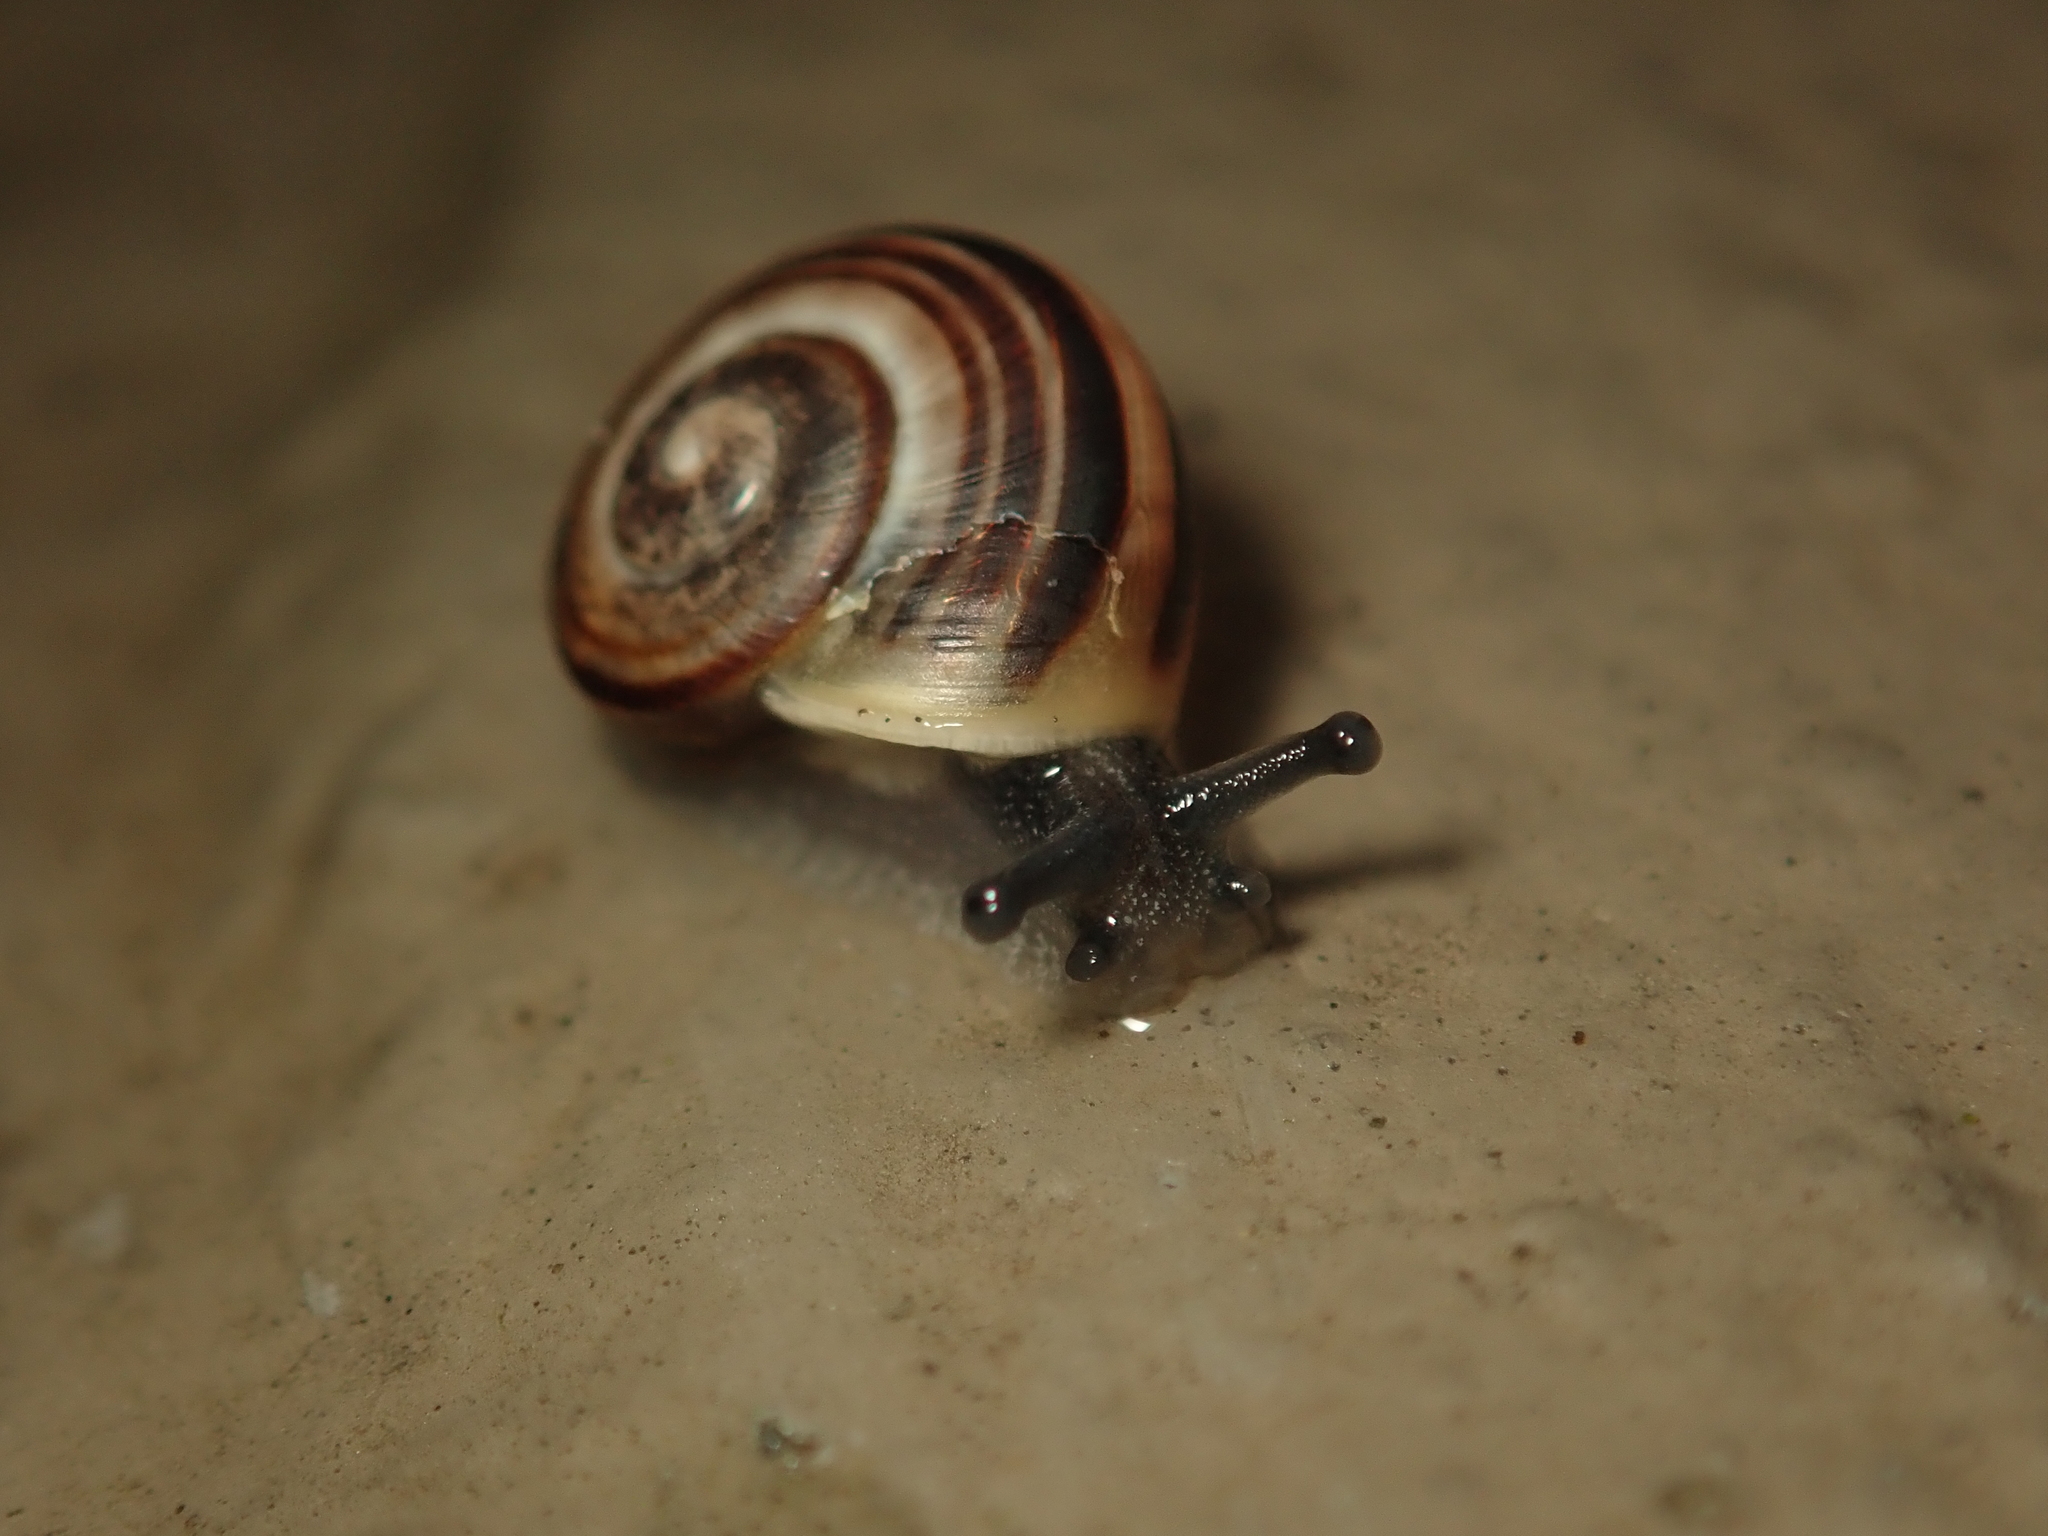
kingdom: Animalia
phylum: Mollusca
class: Gastropoda
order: Stylommatophora
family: Helicidae
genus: Cepaea
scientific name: Cepaea
